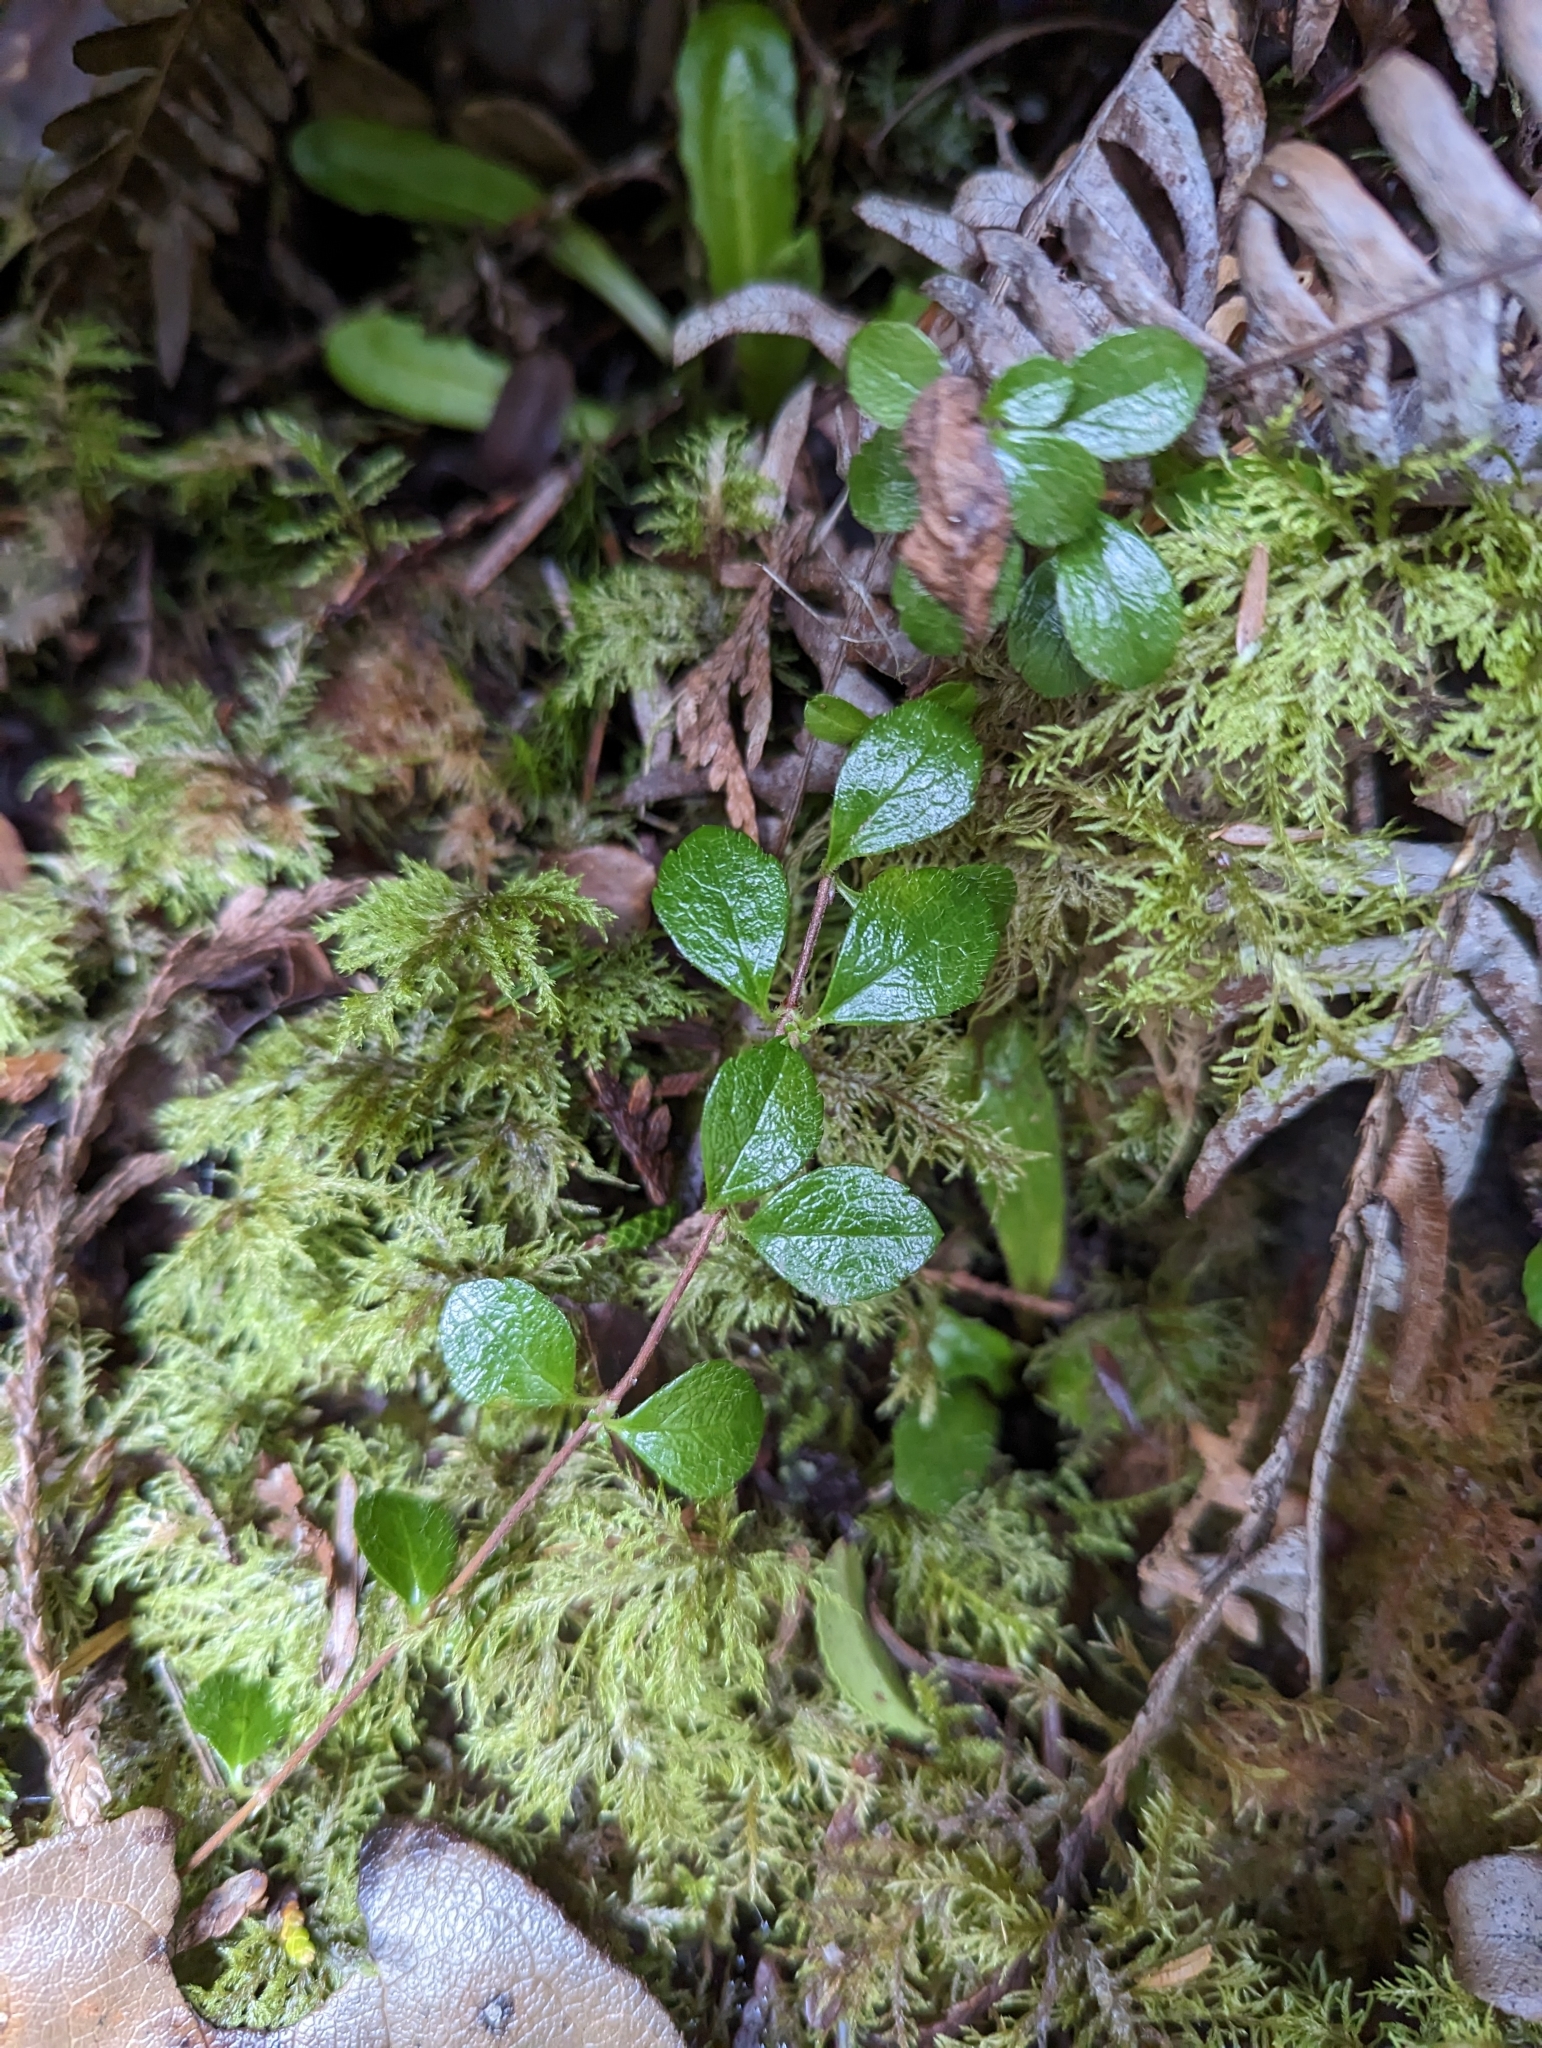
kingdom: Plantae
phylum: Tracheophyta
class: Magnoliopsida
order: Dipsacales
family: Caprifoliaceae
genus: Linnaea
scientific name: Linnaea borealis
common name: Twinflower
